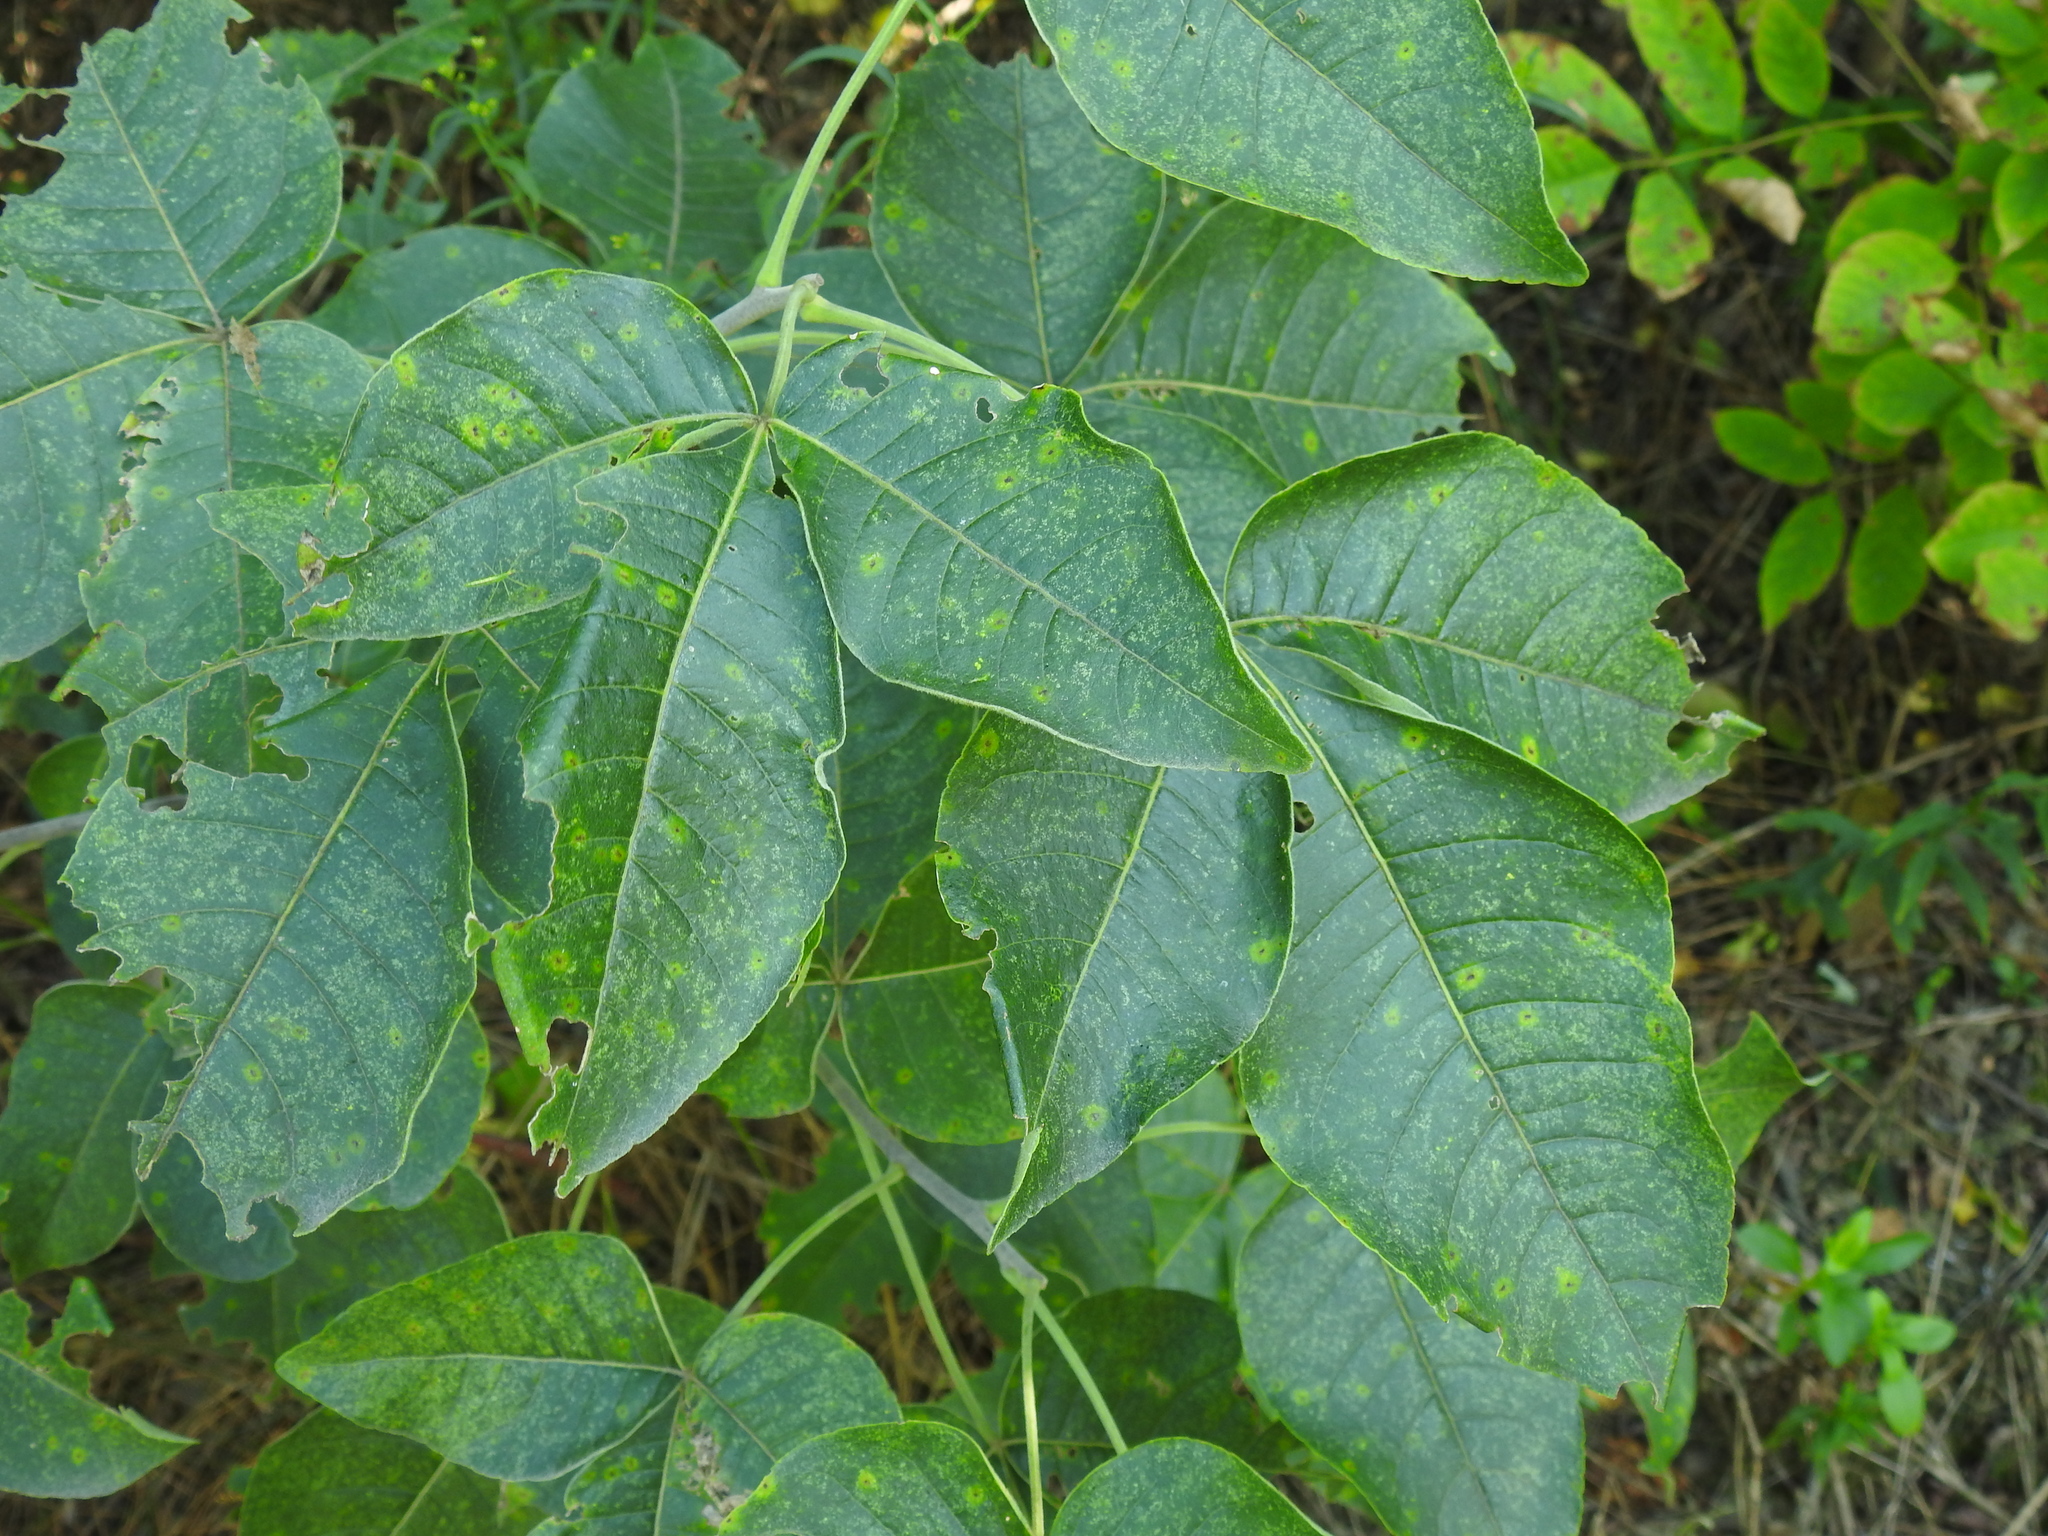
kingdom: Plantae
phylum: Tracheophyta
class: Magnoliopsida
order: Sapindales
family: Rutaceae
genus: Ptelea
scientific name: Ptelea trifoliata
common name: Common hop-tree
